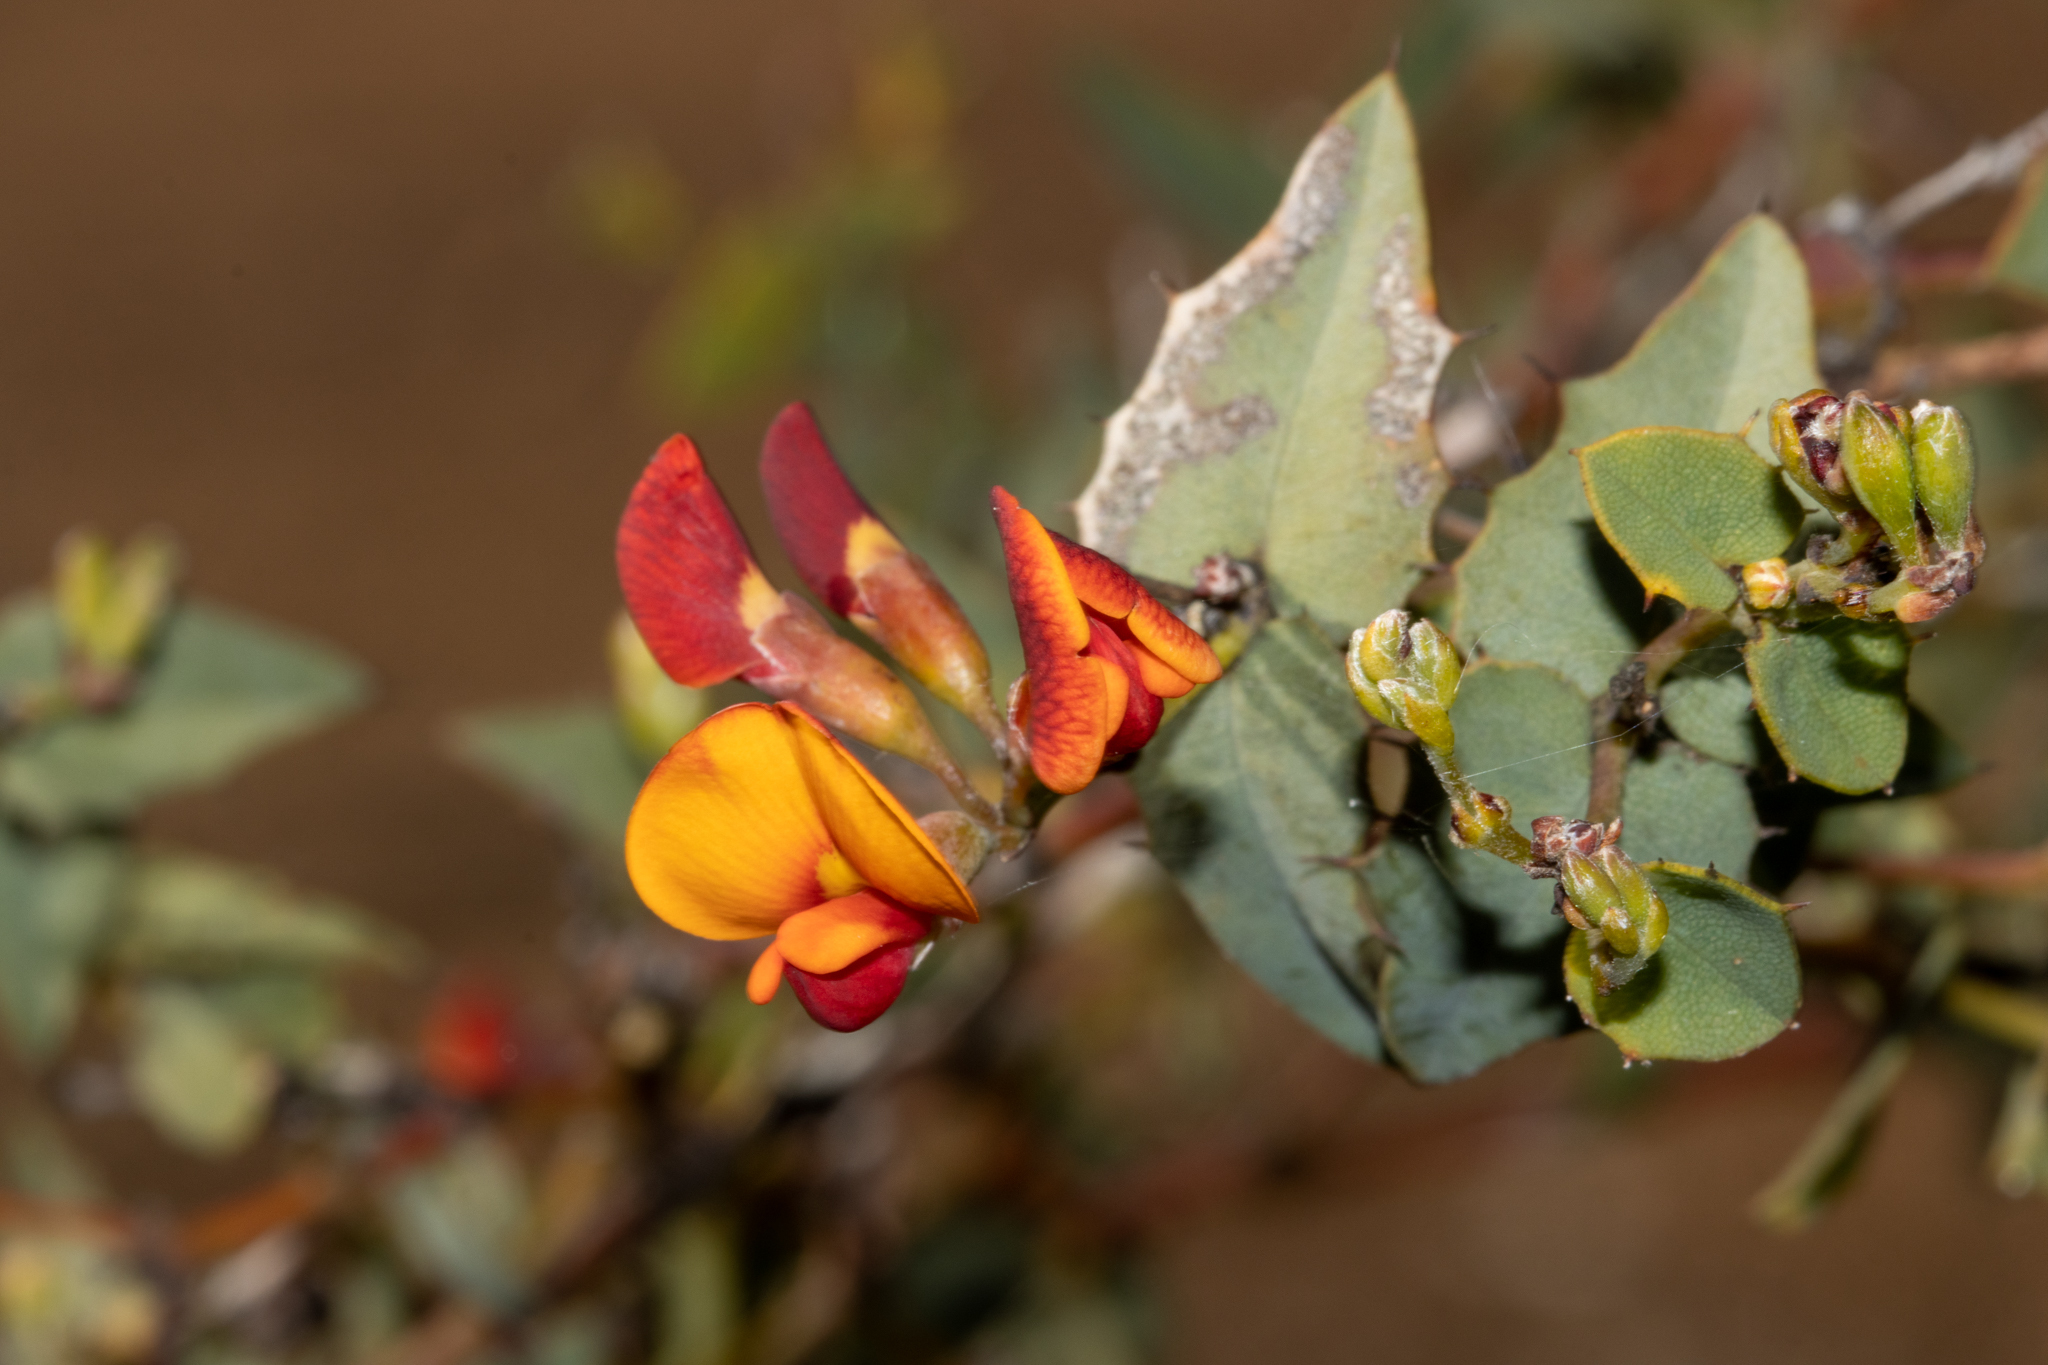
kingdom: Plantae
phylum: Tracheophyta
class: Magnoliopsida
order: Fabales
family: Fabaceae
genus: Gastrolobium
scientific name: Gastrolobium spinosum
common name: Prickly poison
